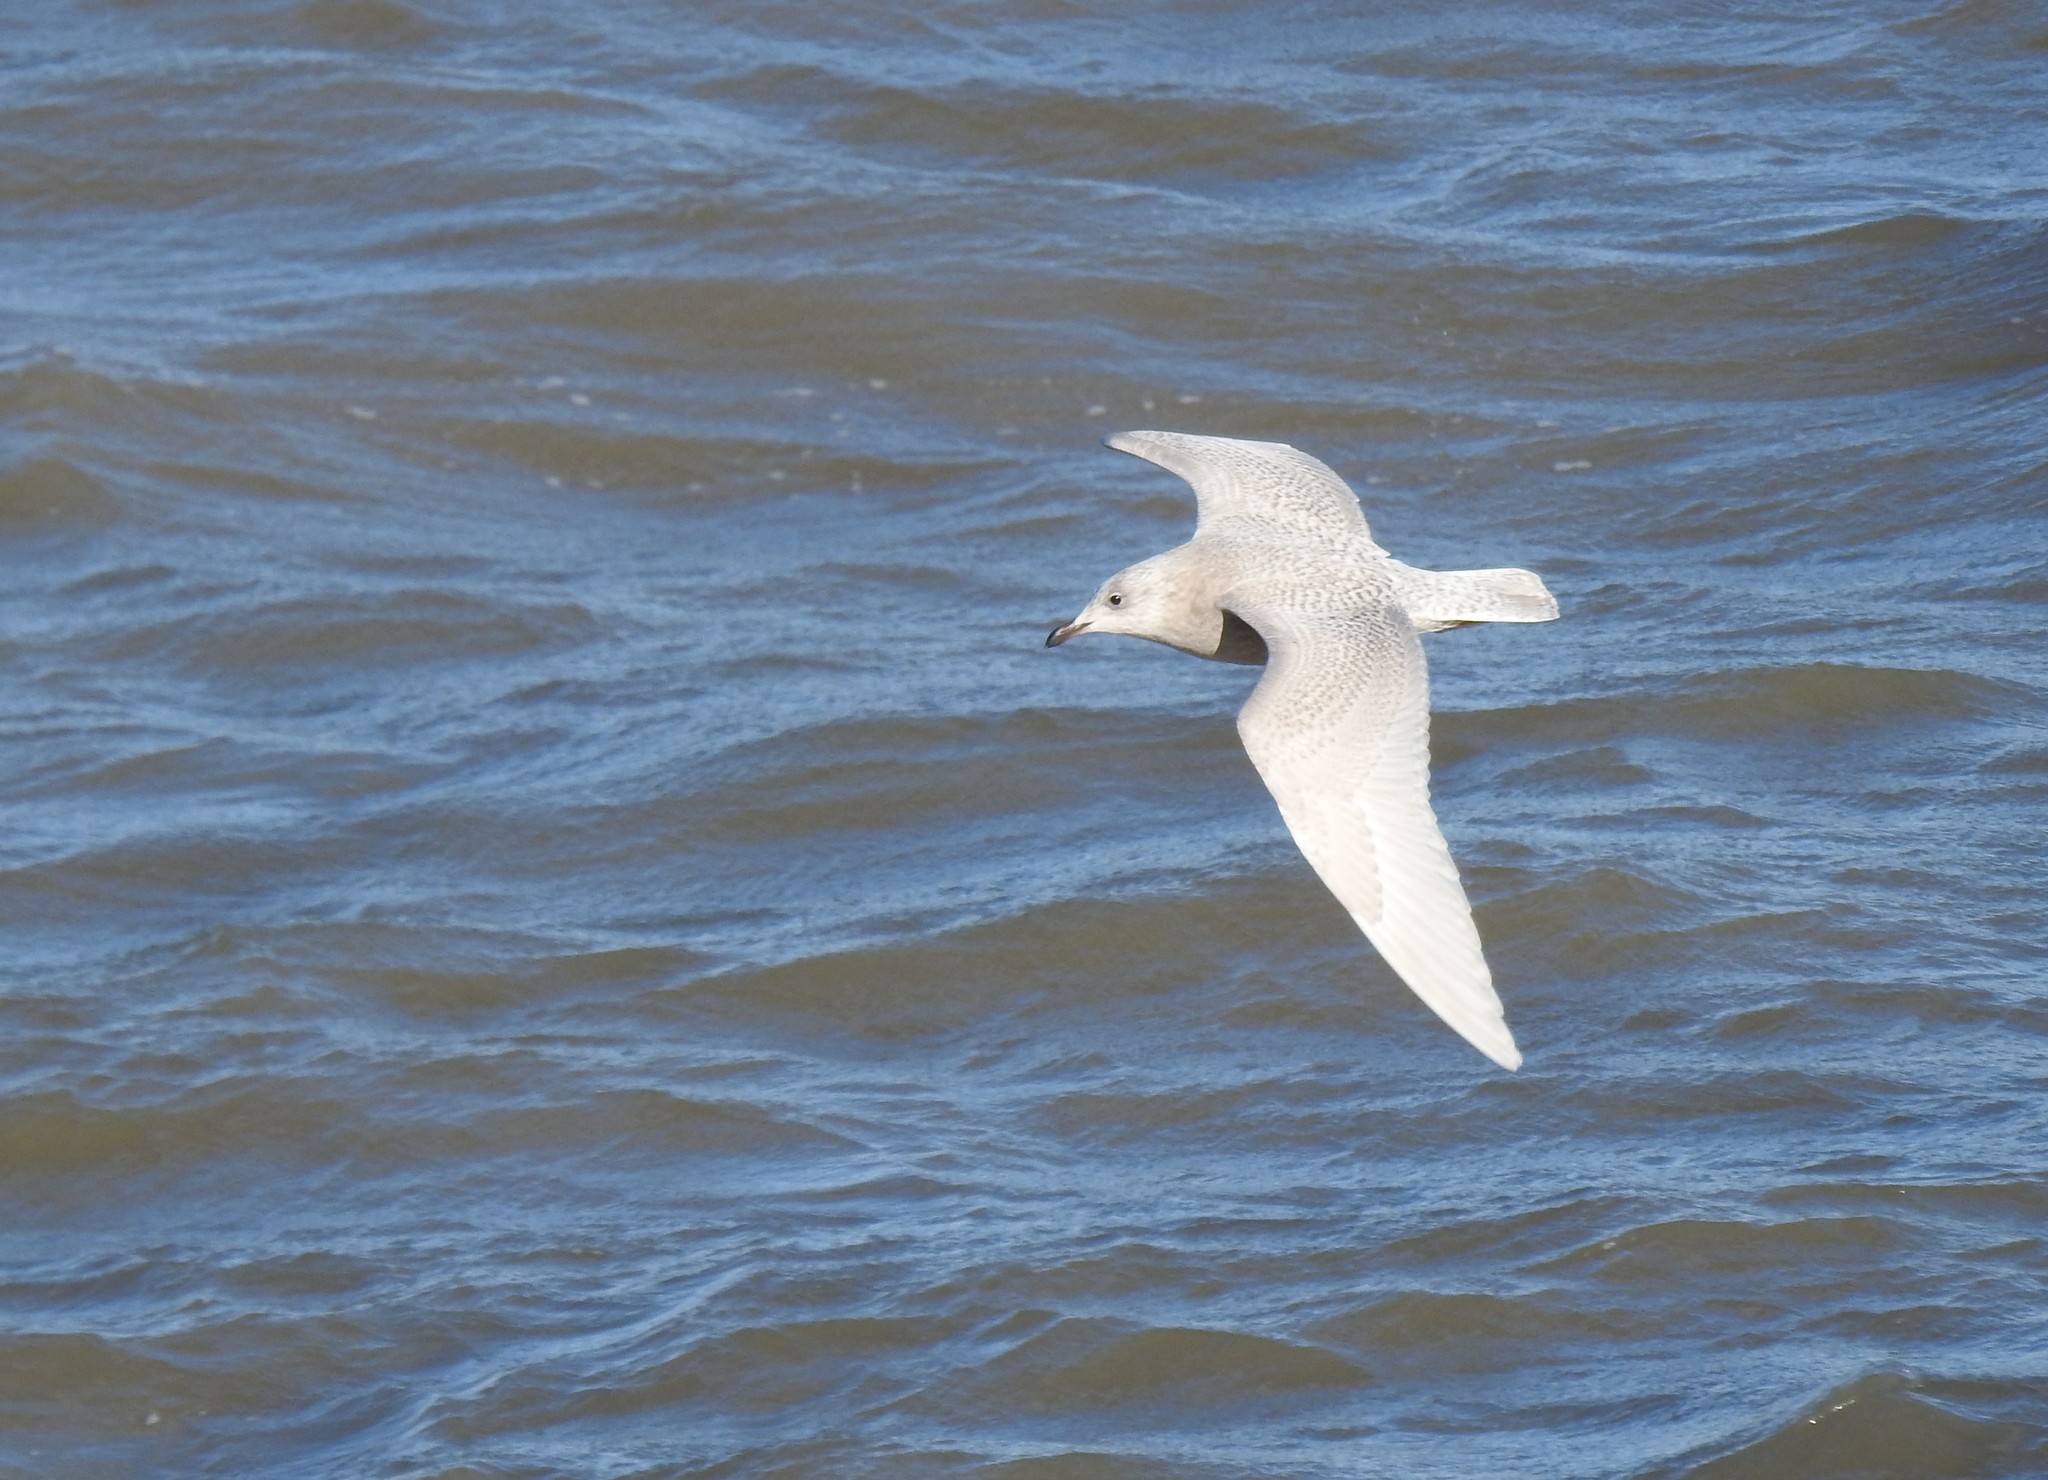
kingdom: Animalia
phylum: Chordata
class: Aves
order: Charadriiformes
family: Laridae
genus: Larus
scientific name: Larus glaucoides
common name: Iceland gull
